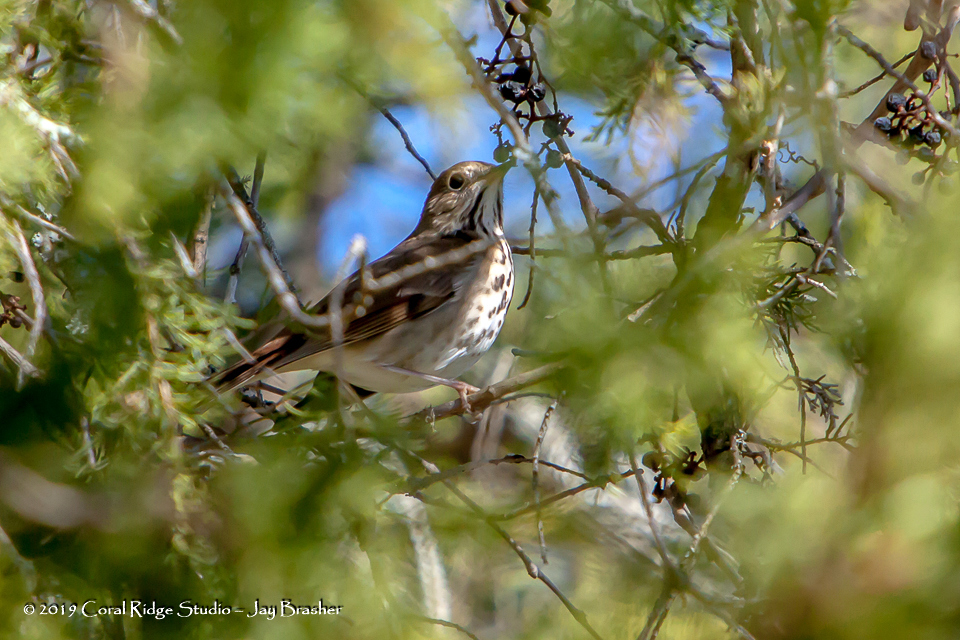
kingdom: Animalia
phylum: Chordata
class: Aves
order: Passeriformes
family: Turdidae
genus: Catharus
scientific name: Catharus guttatus
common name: Hermit thrush
